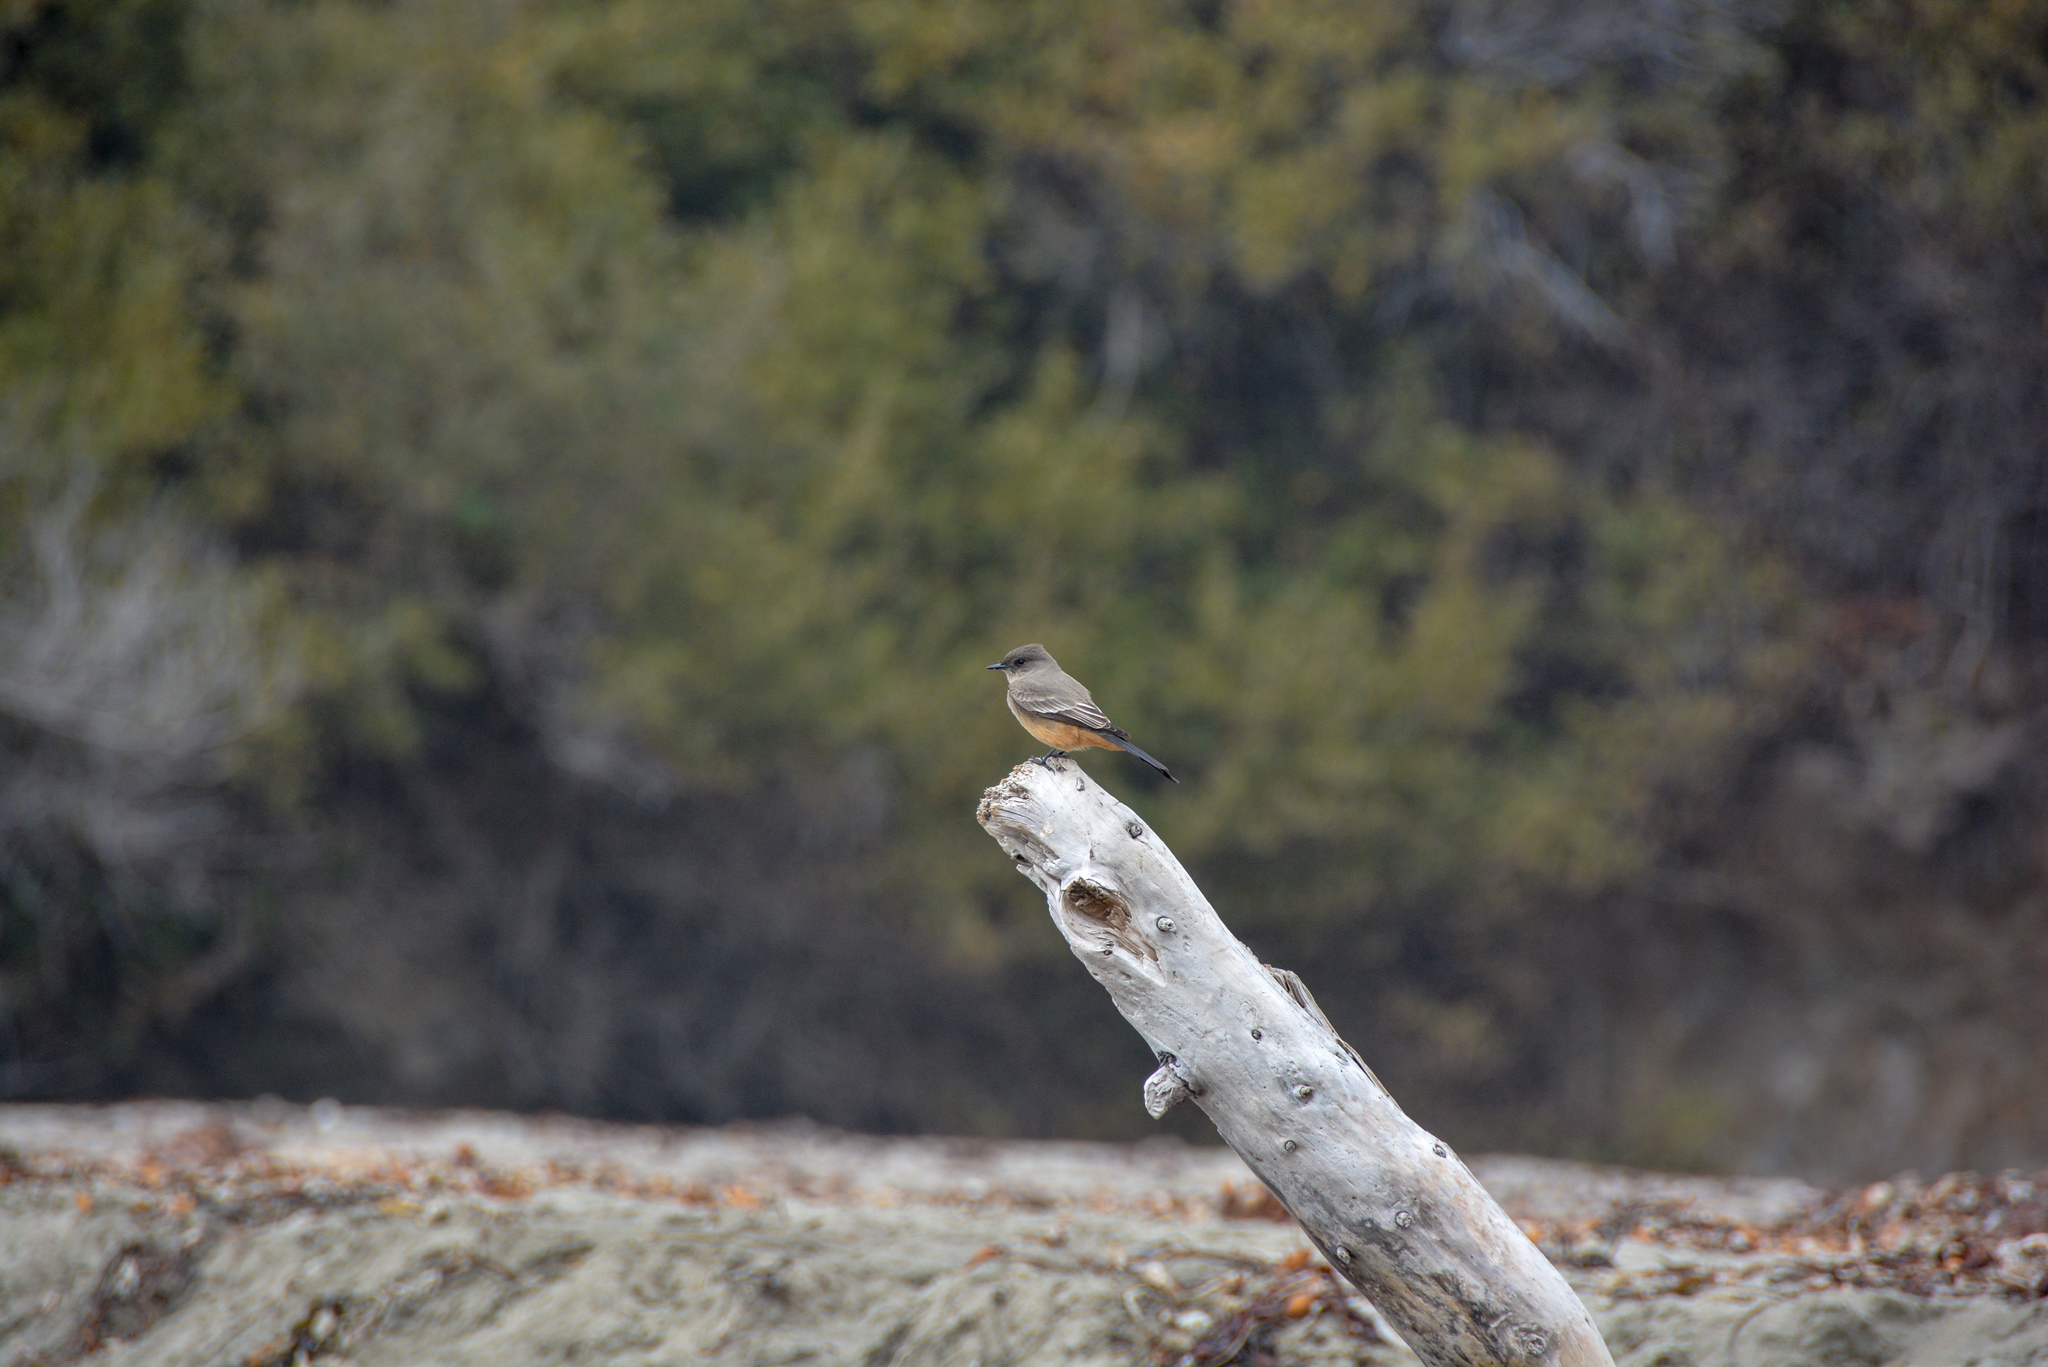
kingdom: Animalia
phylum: Chordata
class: Aves
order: Passeriformes
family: Tyrannidae
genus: Sayornis
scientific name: Sayornis saya
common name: Say's phoebe
